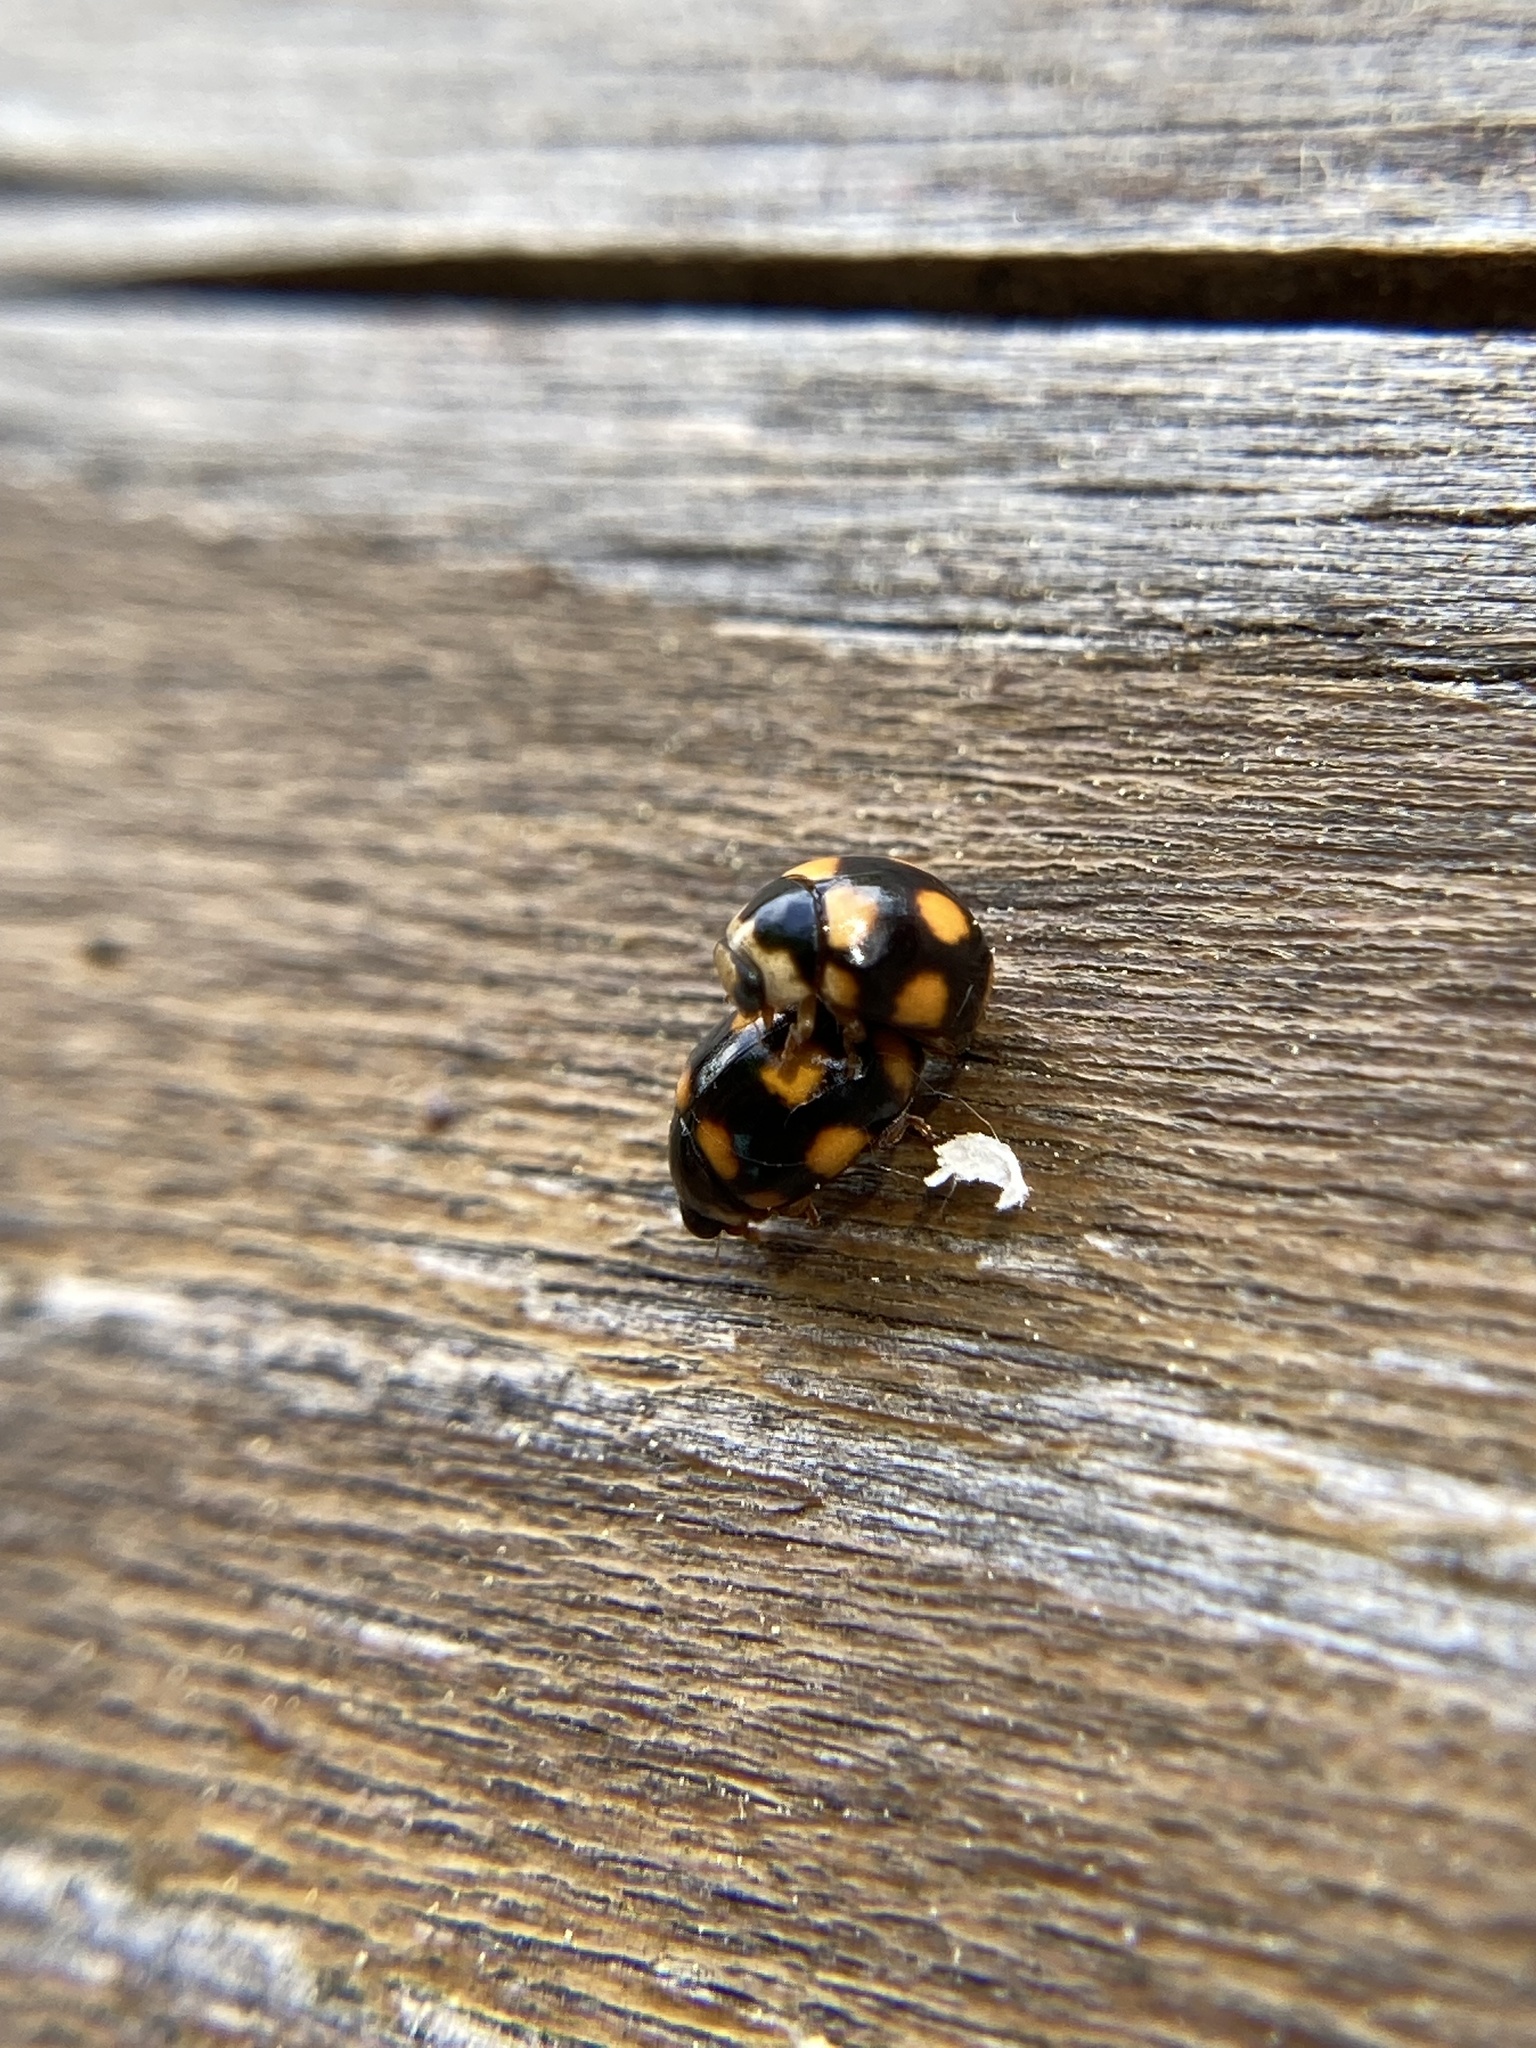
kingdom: Animalia
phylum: Arthropoda
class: Insecta
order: Coleoptera
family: Coccinellidae
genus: Brachiacantha
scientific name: Brachiacantha ursina
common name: Ursine spurleg lady beetle
